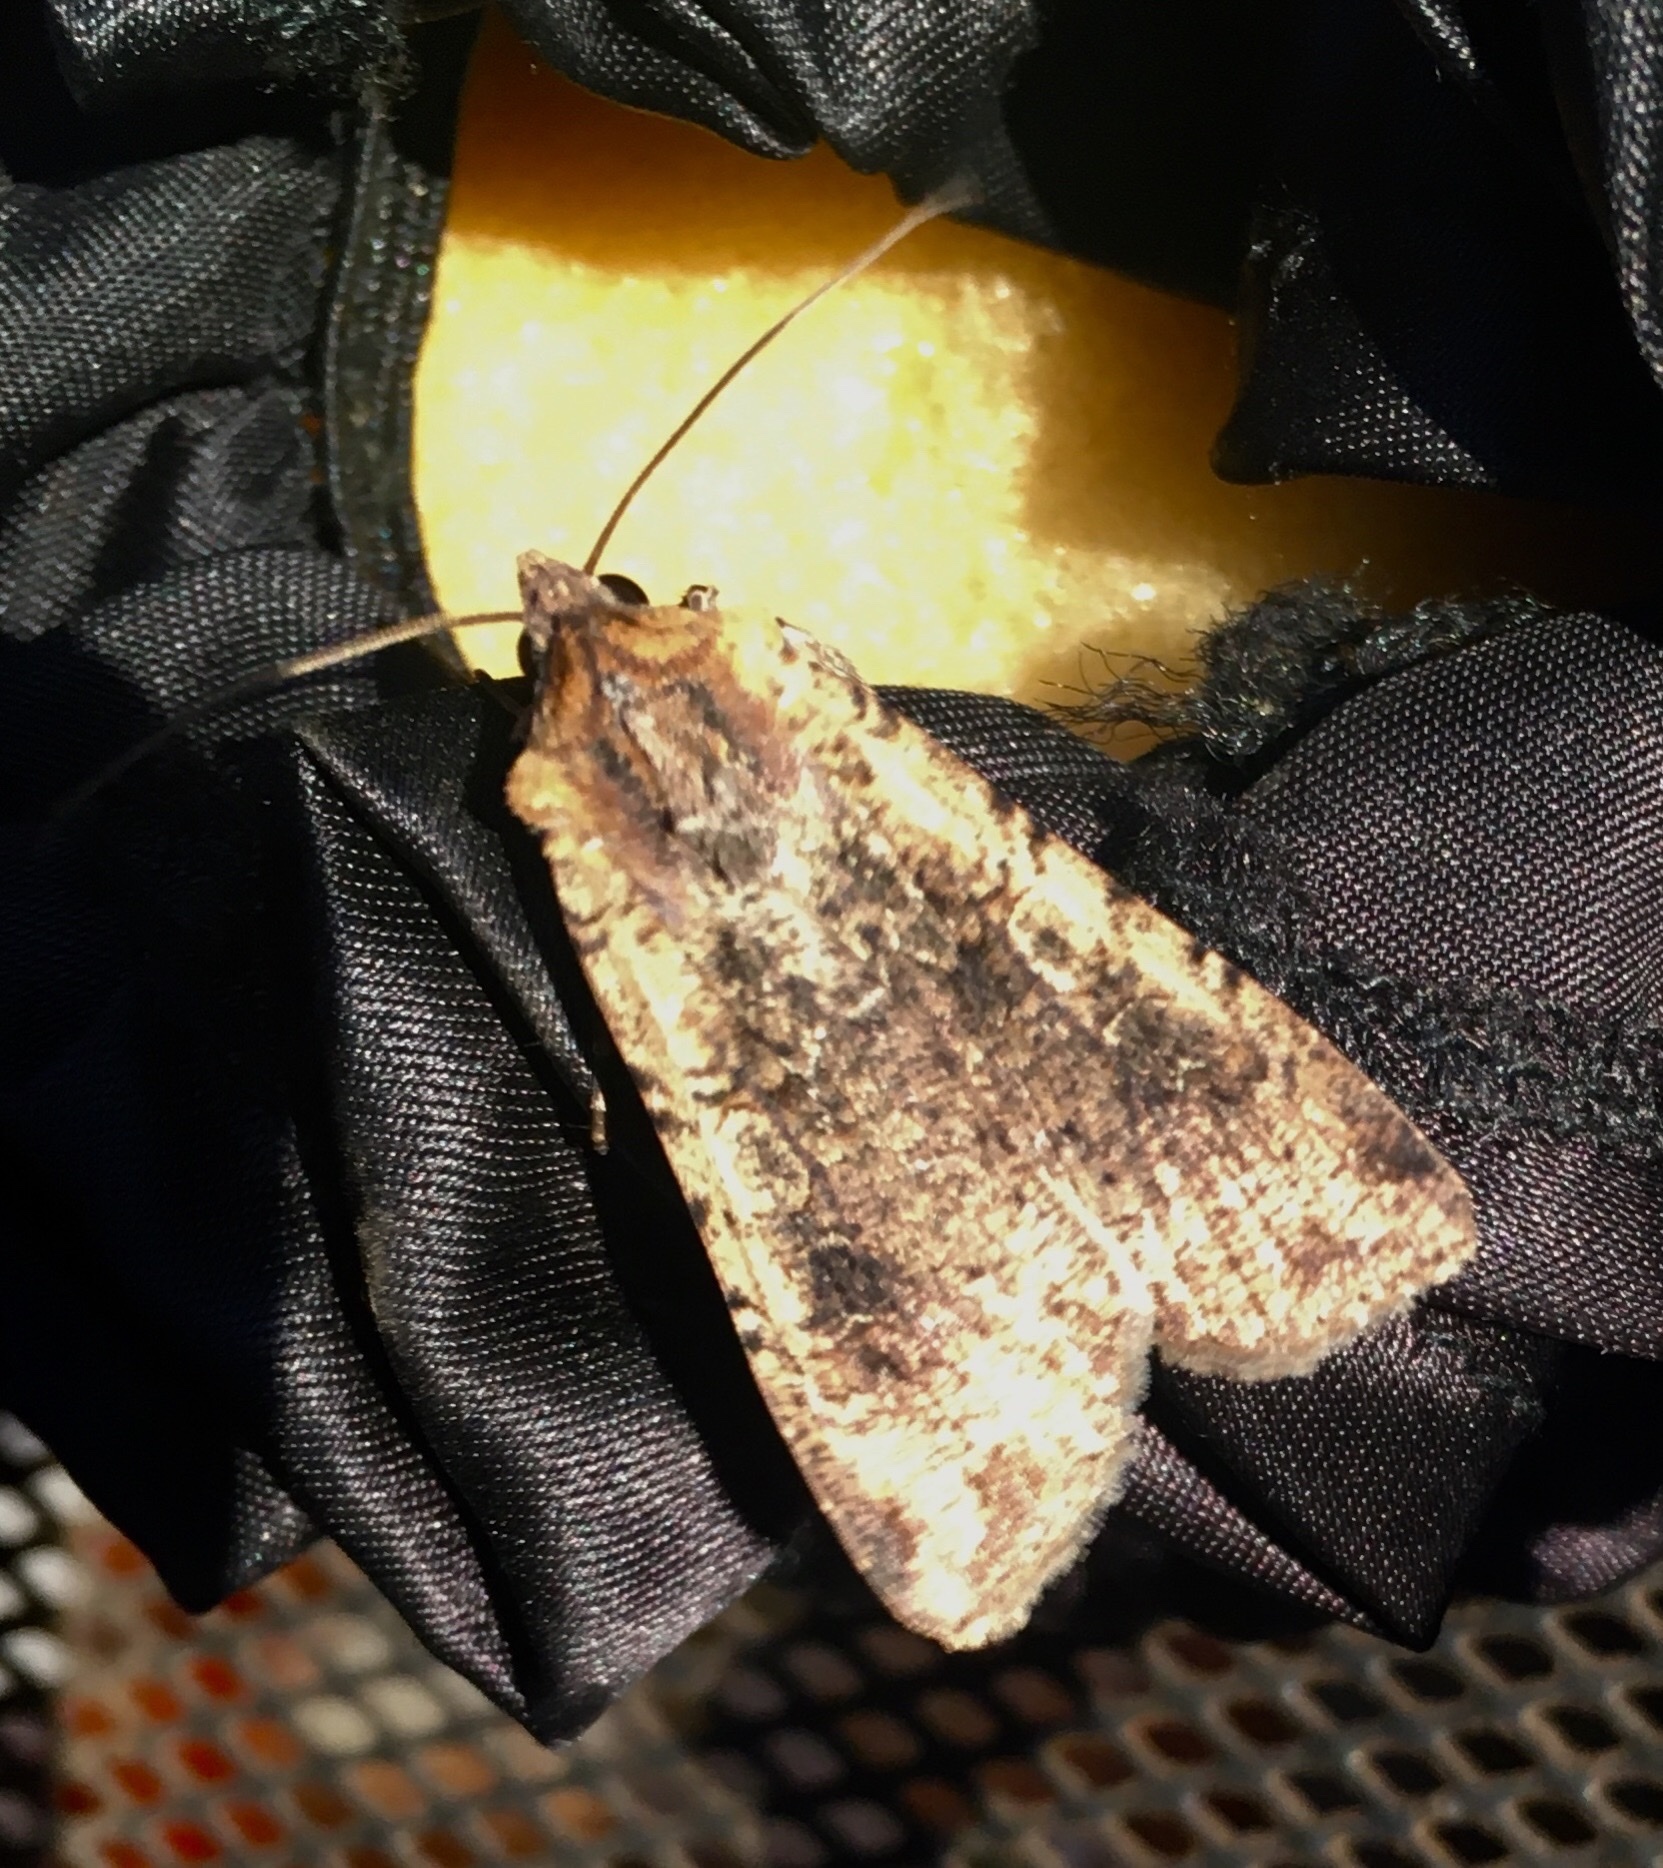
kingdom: Animalia
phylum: Arthropoda
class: Insecta
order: Lepidoptera
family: Noctuidae
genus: Peridroma
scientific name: Peridroma saucia
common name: Pearly underwing
